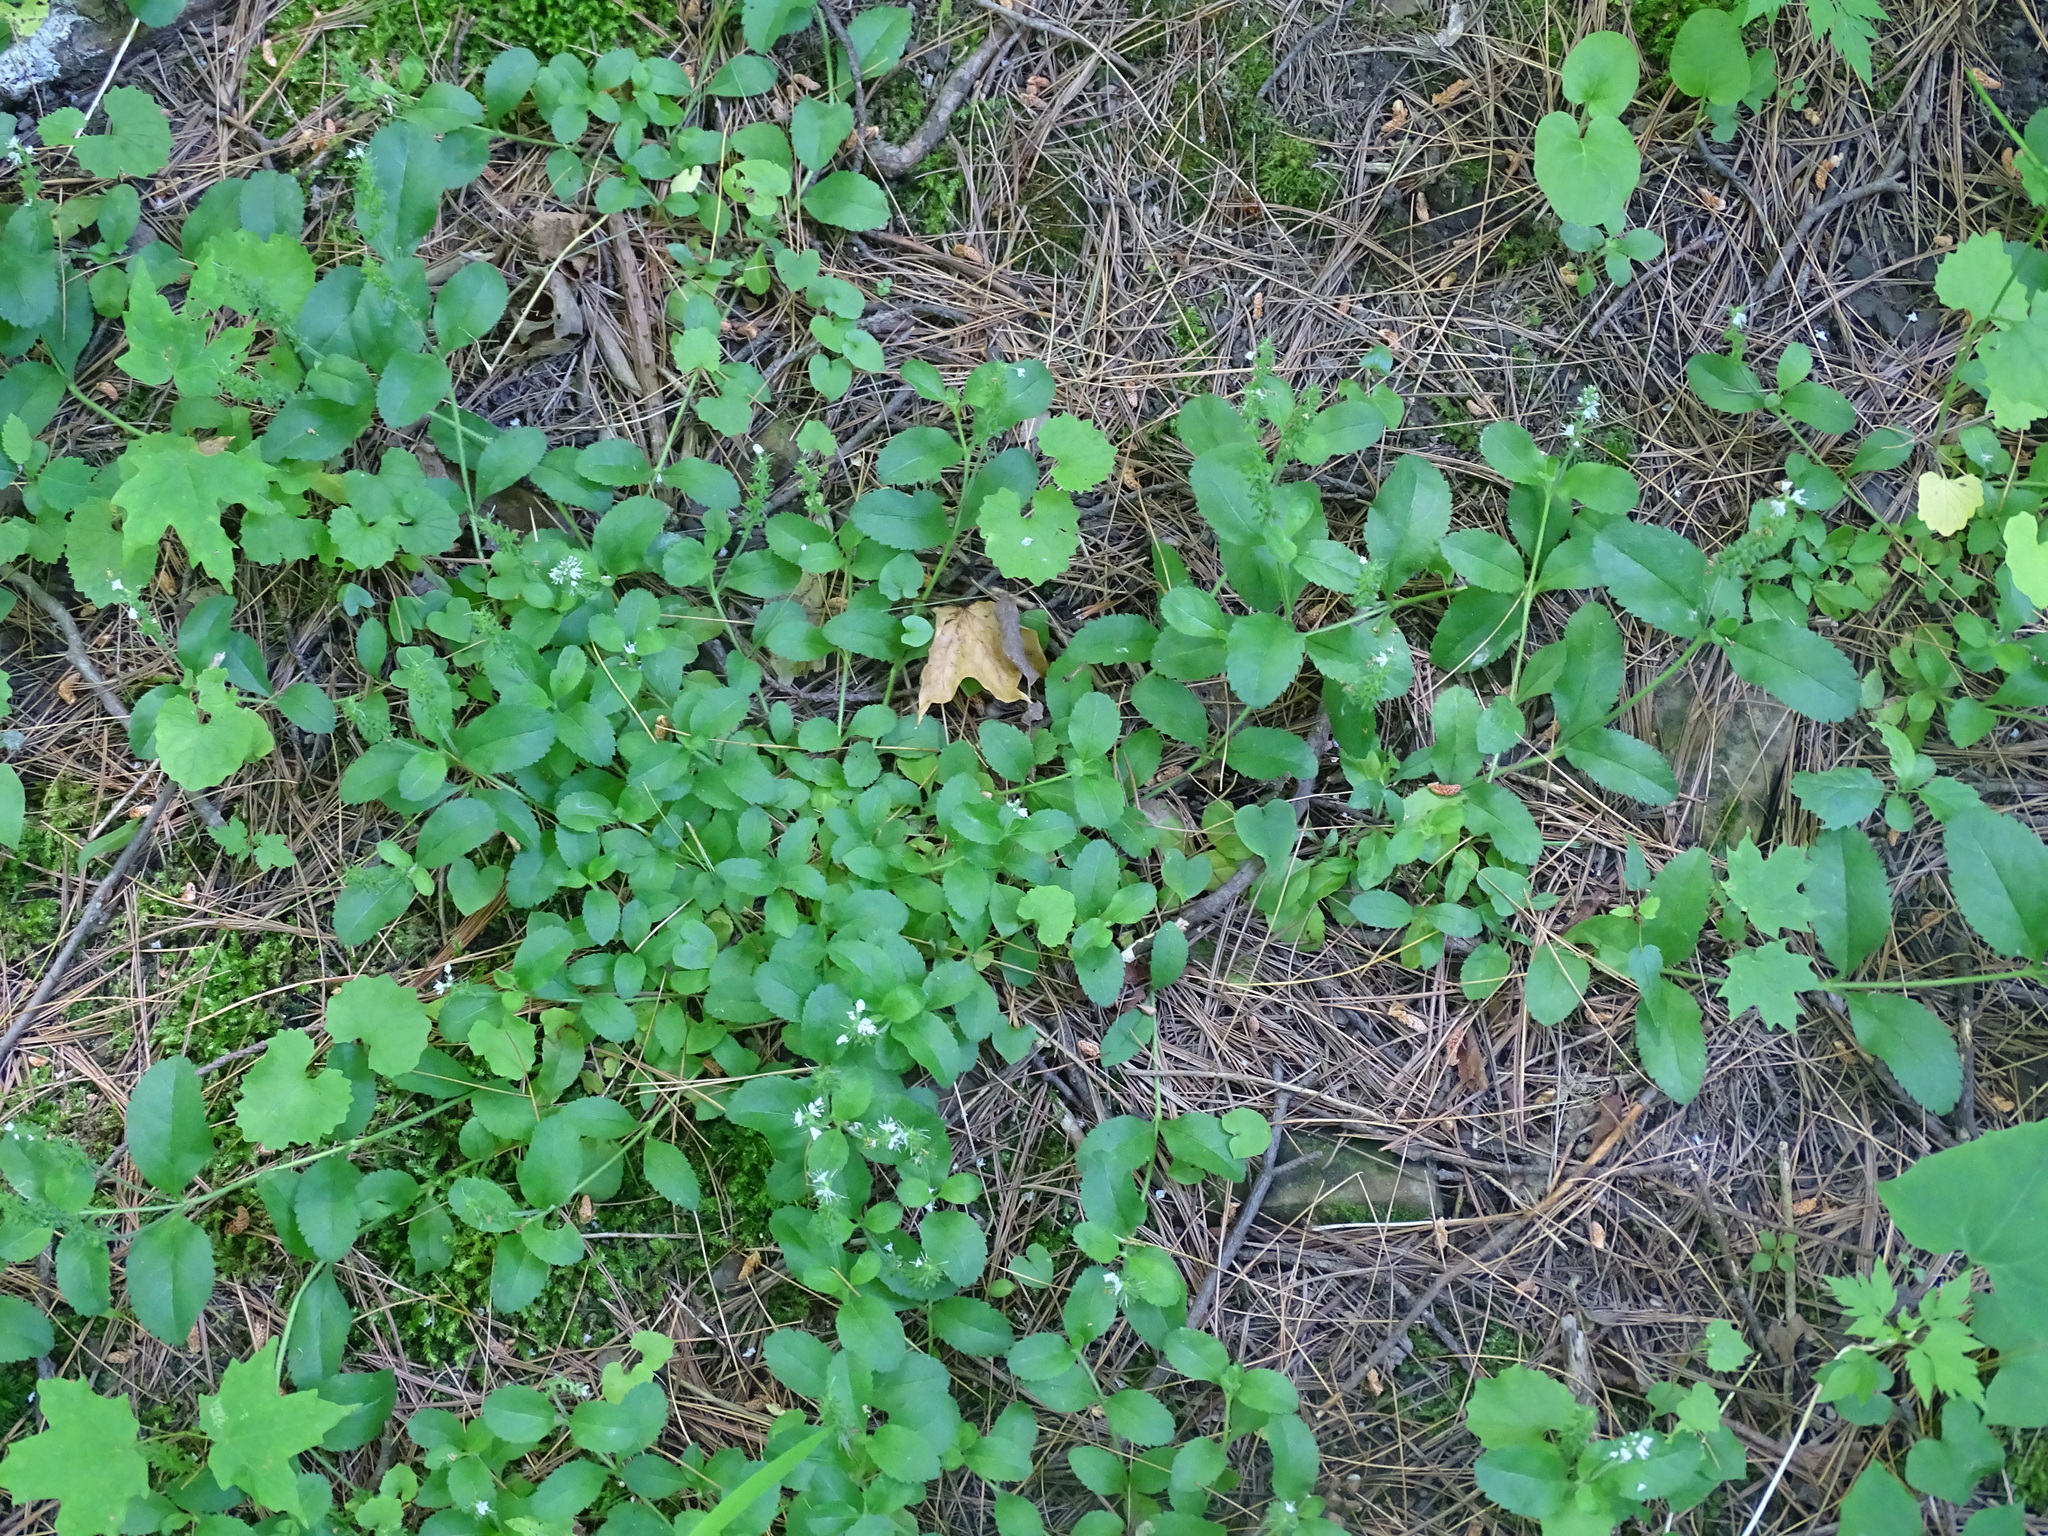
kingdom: Plantae
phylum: Tracheophyta
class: Magnoliopsida
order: Lamiales
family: Plantaginaceae
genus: Veronica
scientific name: Veronica officinalis
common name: Common speedwell
